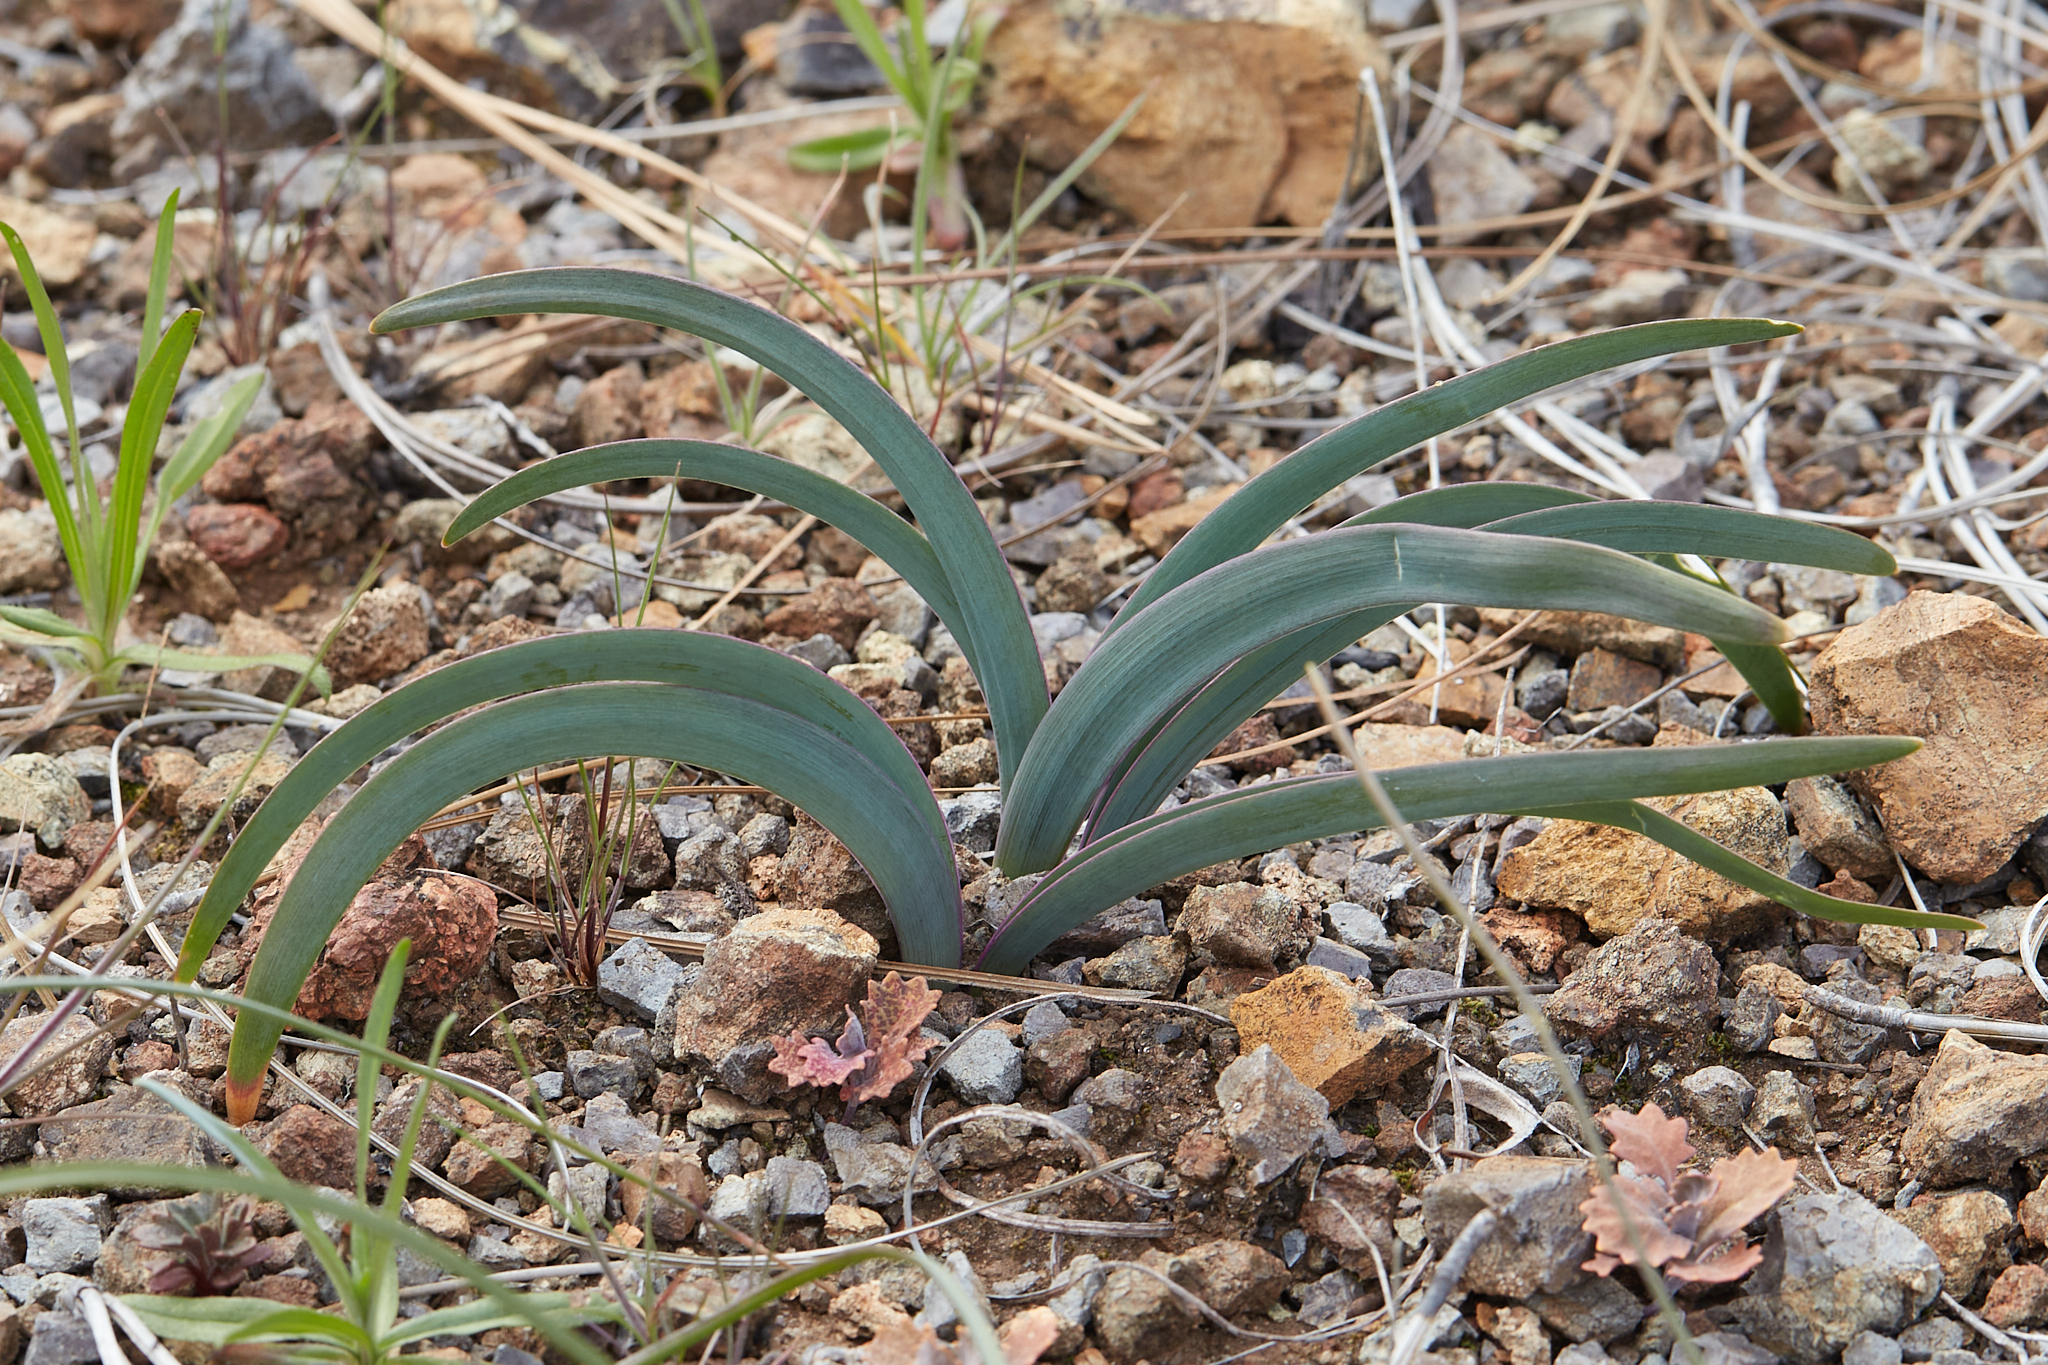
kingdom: Plantae
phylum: Tracheophyta
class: Liliopsida
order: Asparagales
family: Amaryllidaceae
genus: Allium
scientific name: Allium falcifolium
